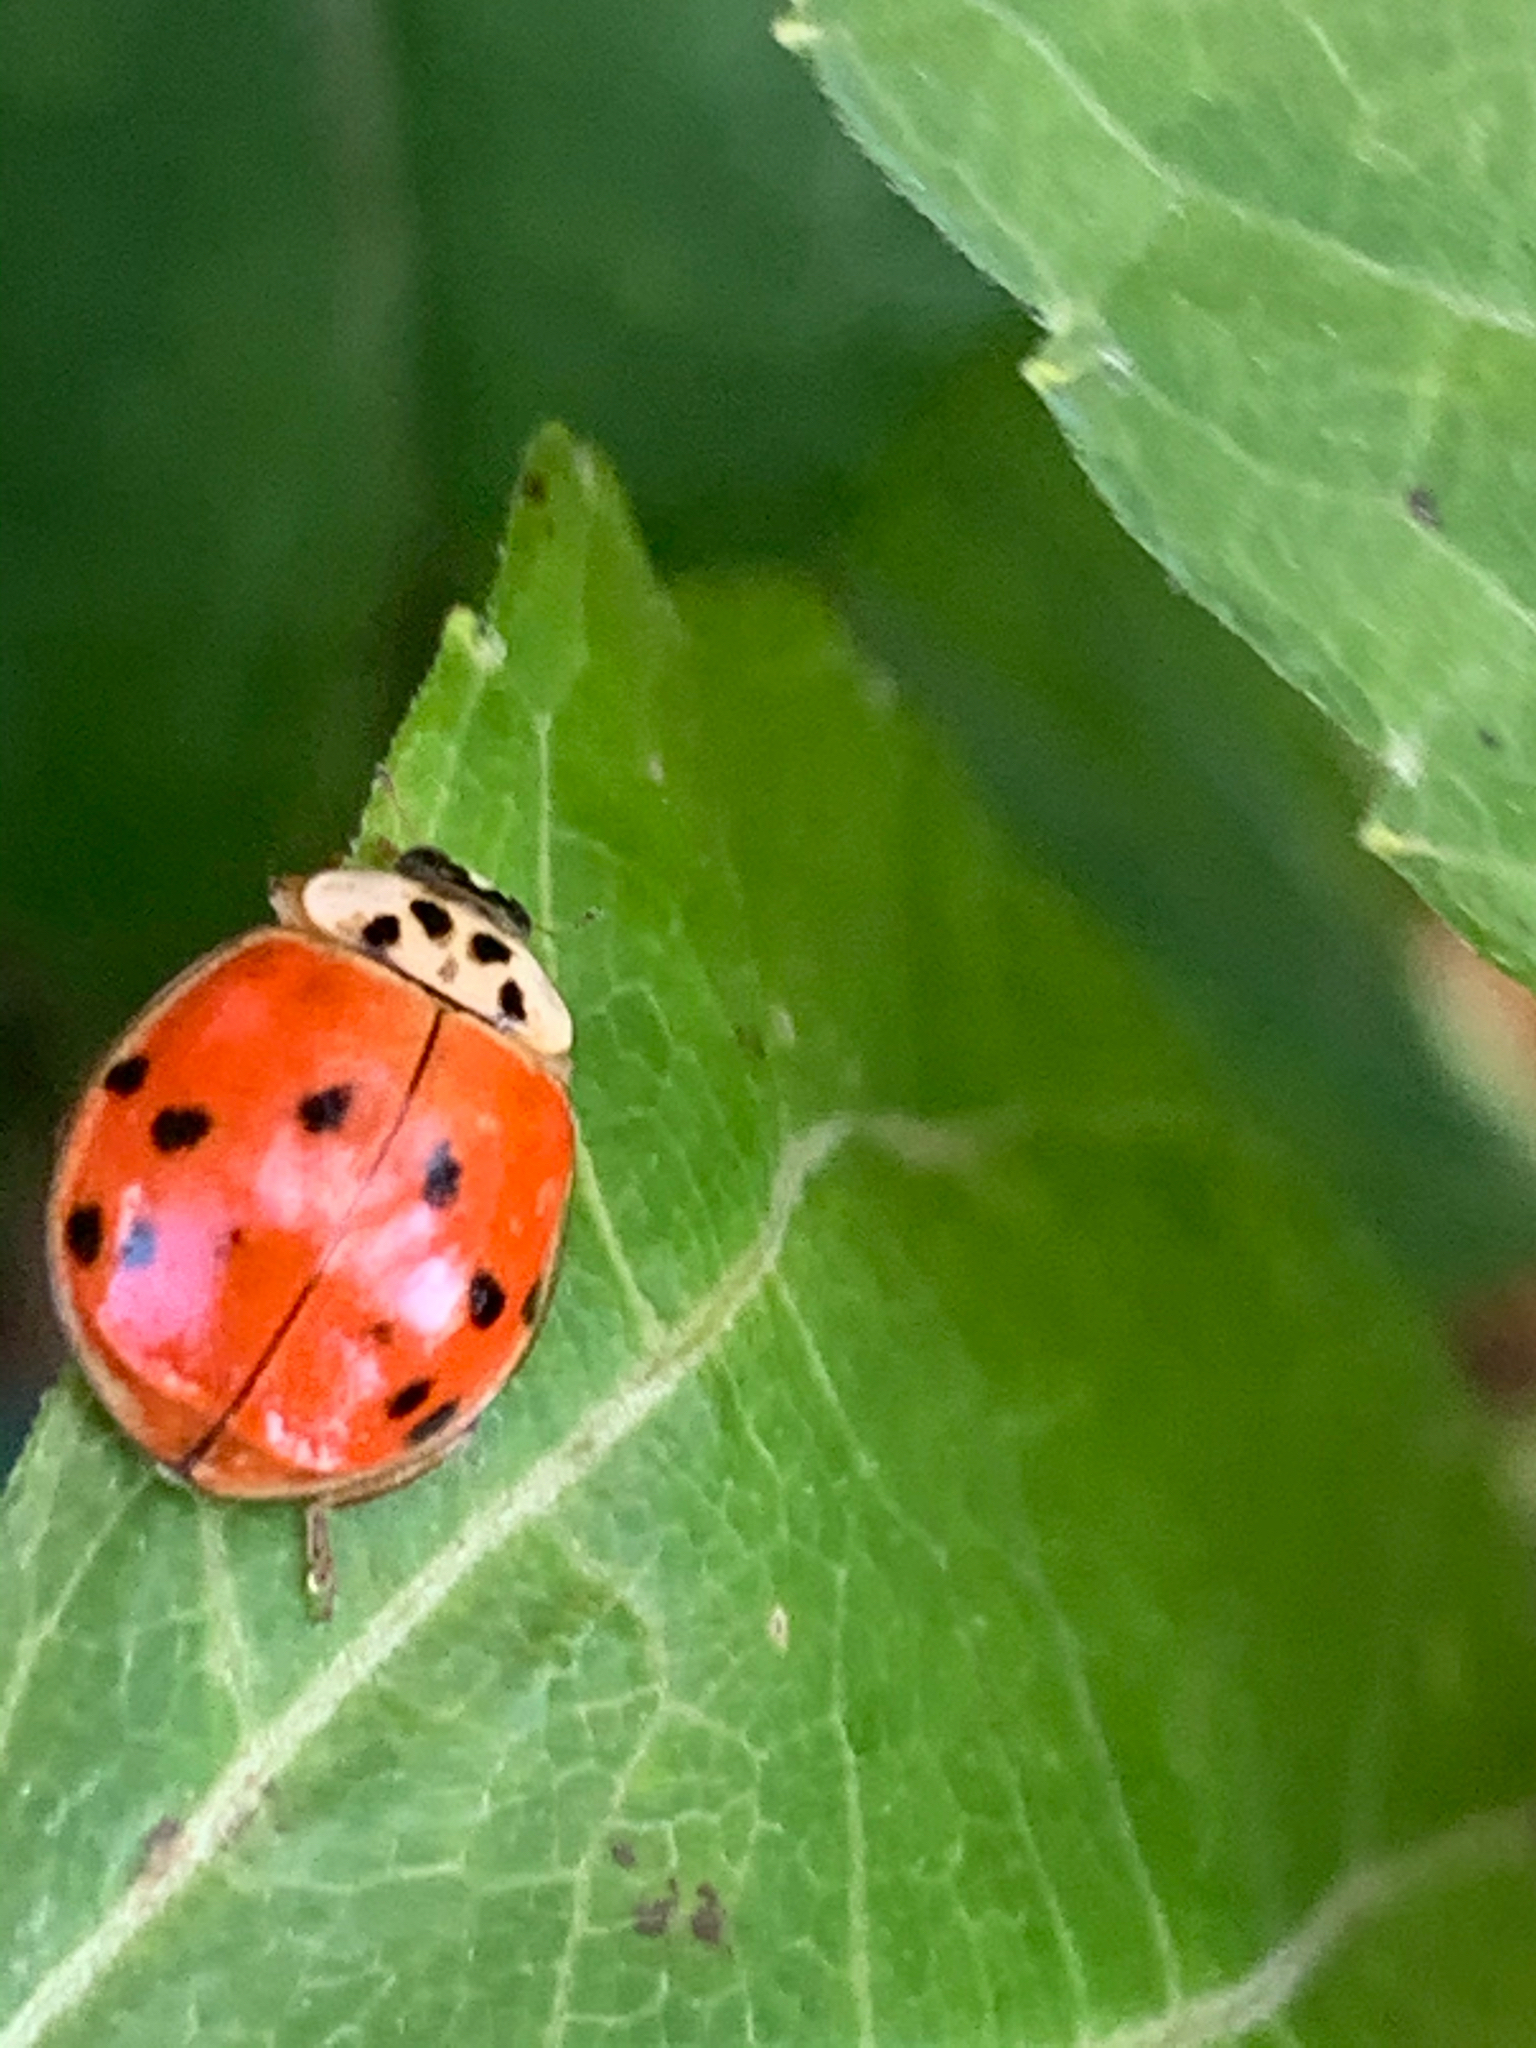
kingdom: Animalia
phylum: Arthropoda
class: Insecta
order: Coleoptera
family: Coccinellidae
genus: Harmonia
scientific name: Harmonia axyridis
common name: Harlequin ladybird
